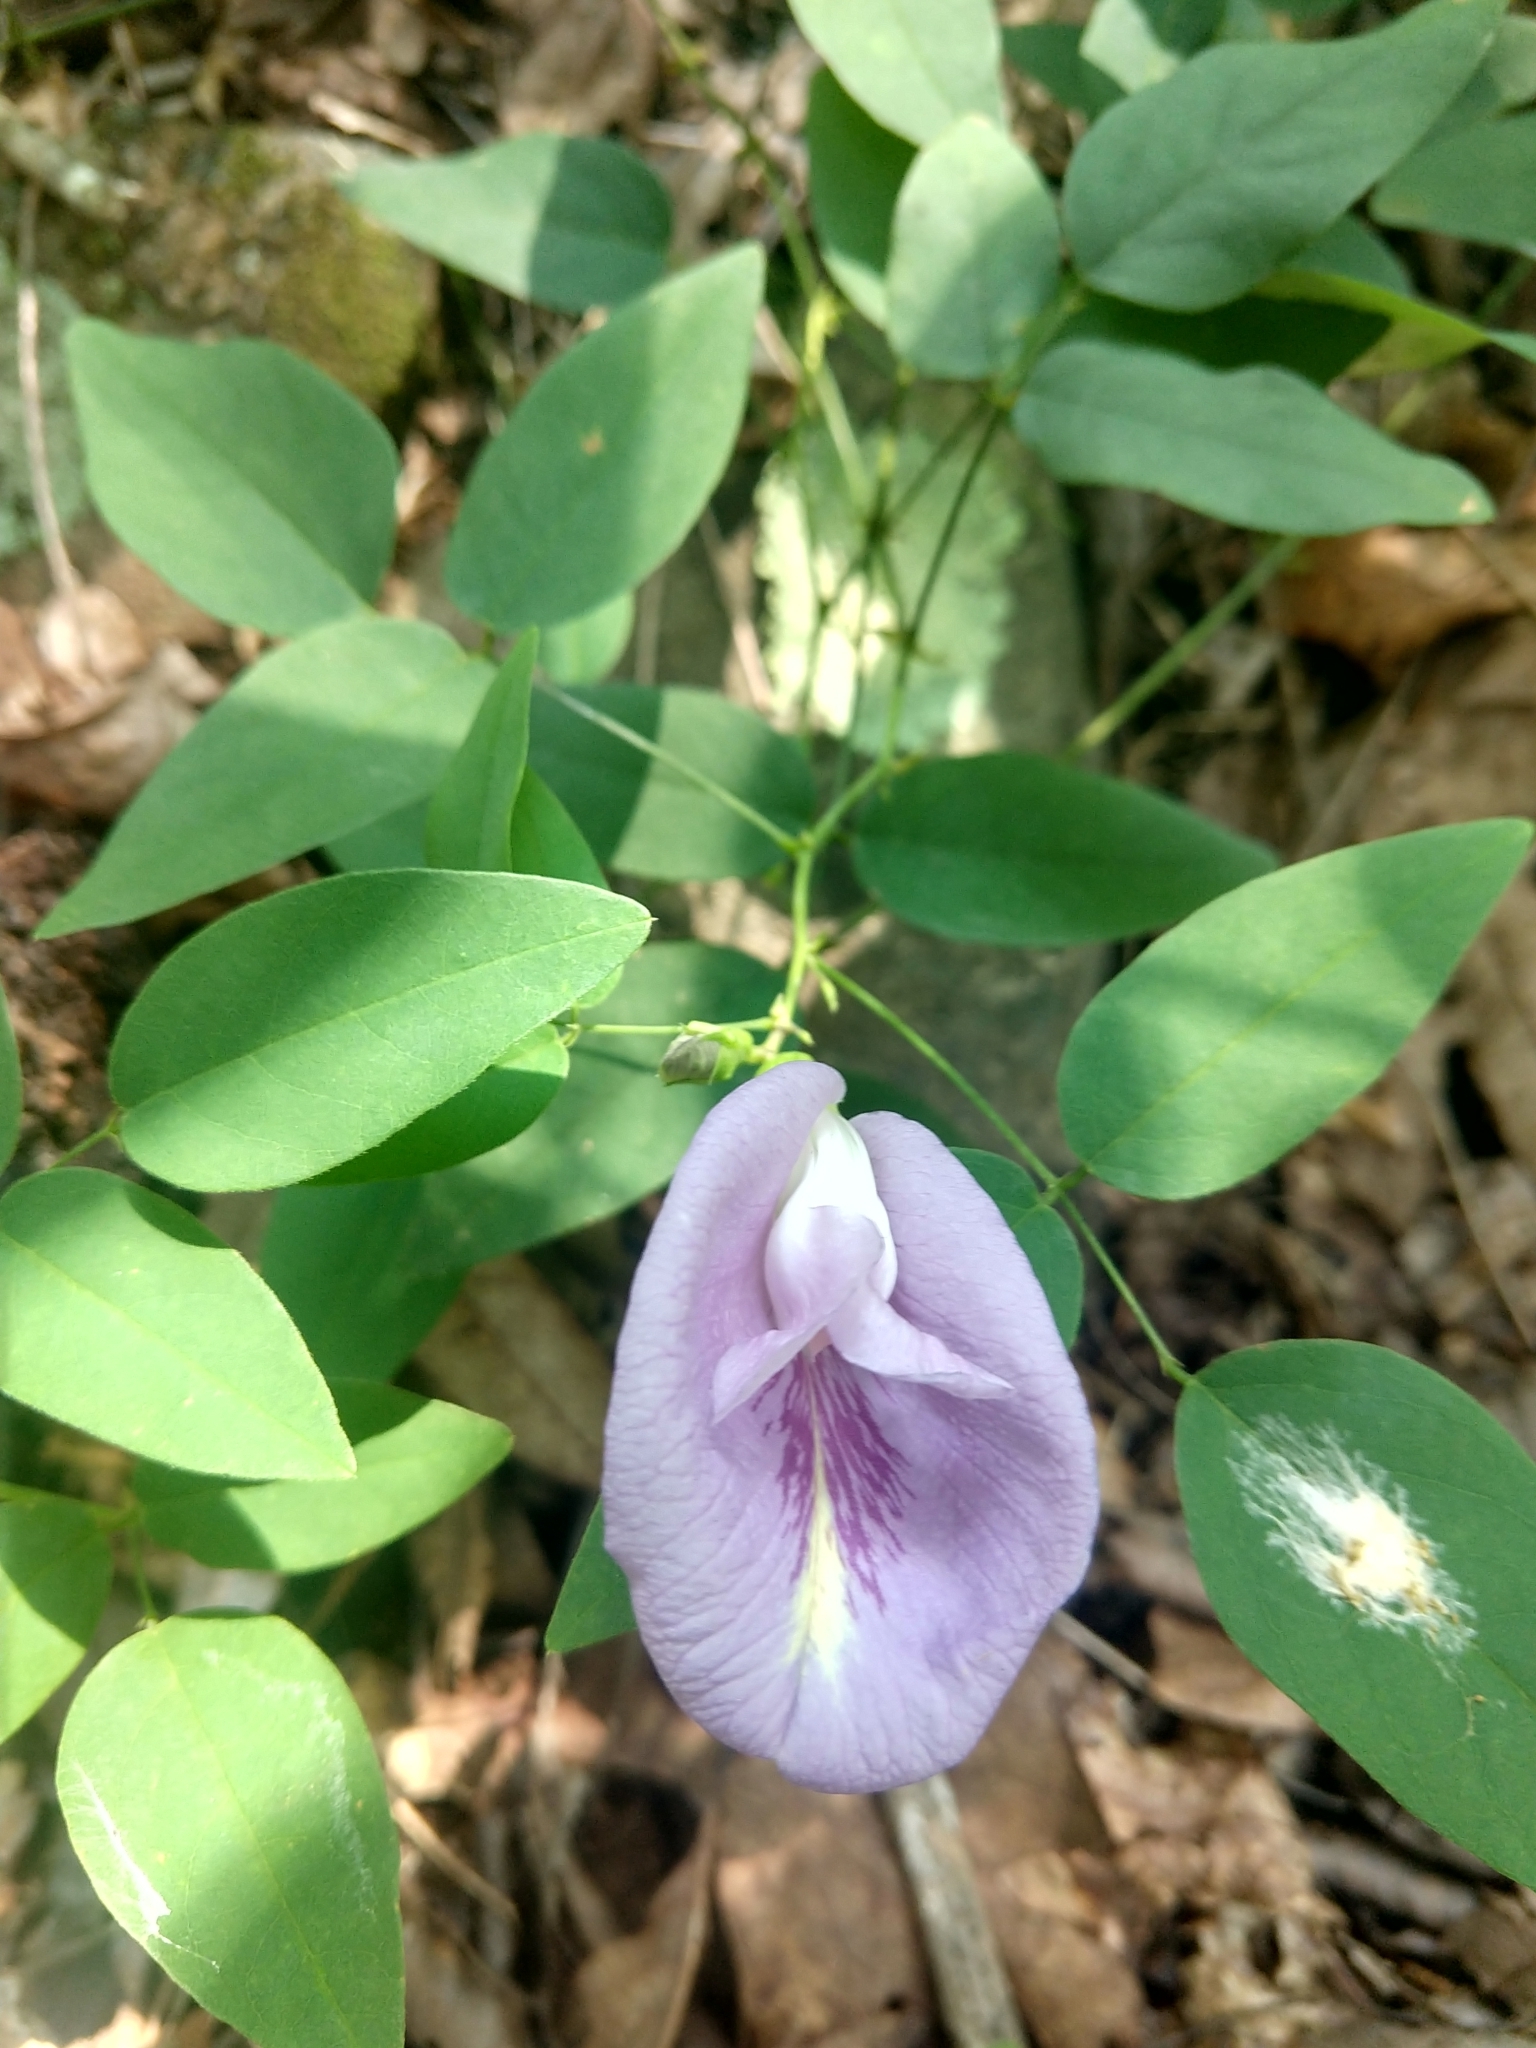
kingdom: Plantae
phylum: Tracheophyta
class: Magnoliopsida
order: Fabales
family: Fabaceae
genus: Clitoria
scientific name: Clitoria mariana
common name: Butterfly-pea
